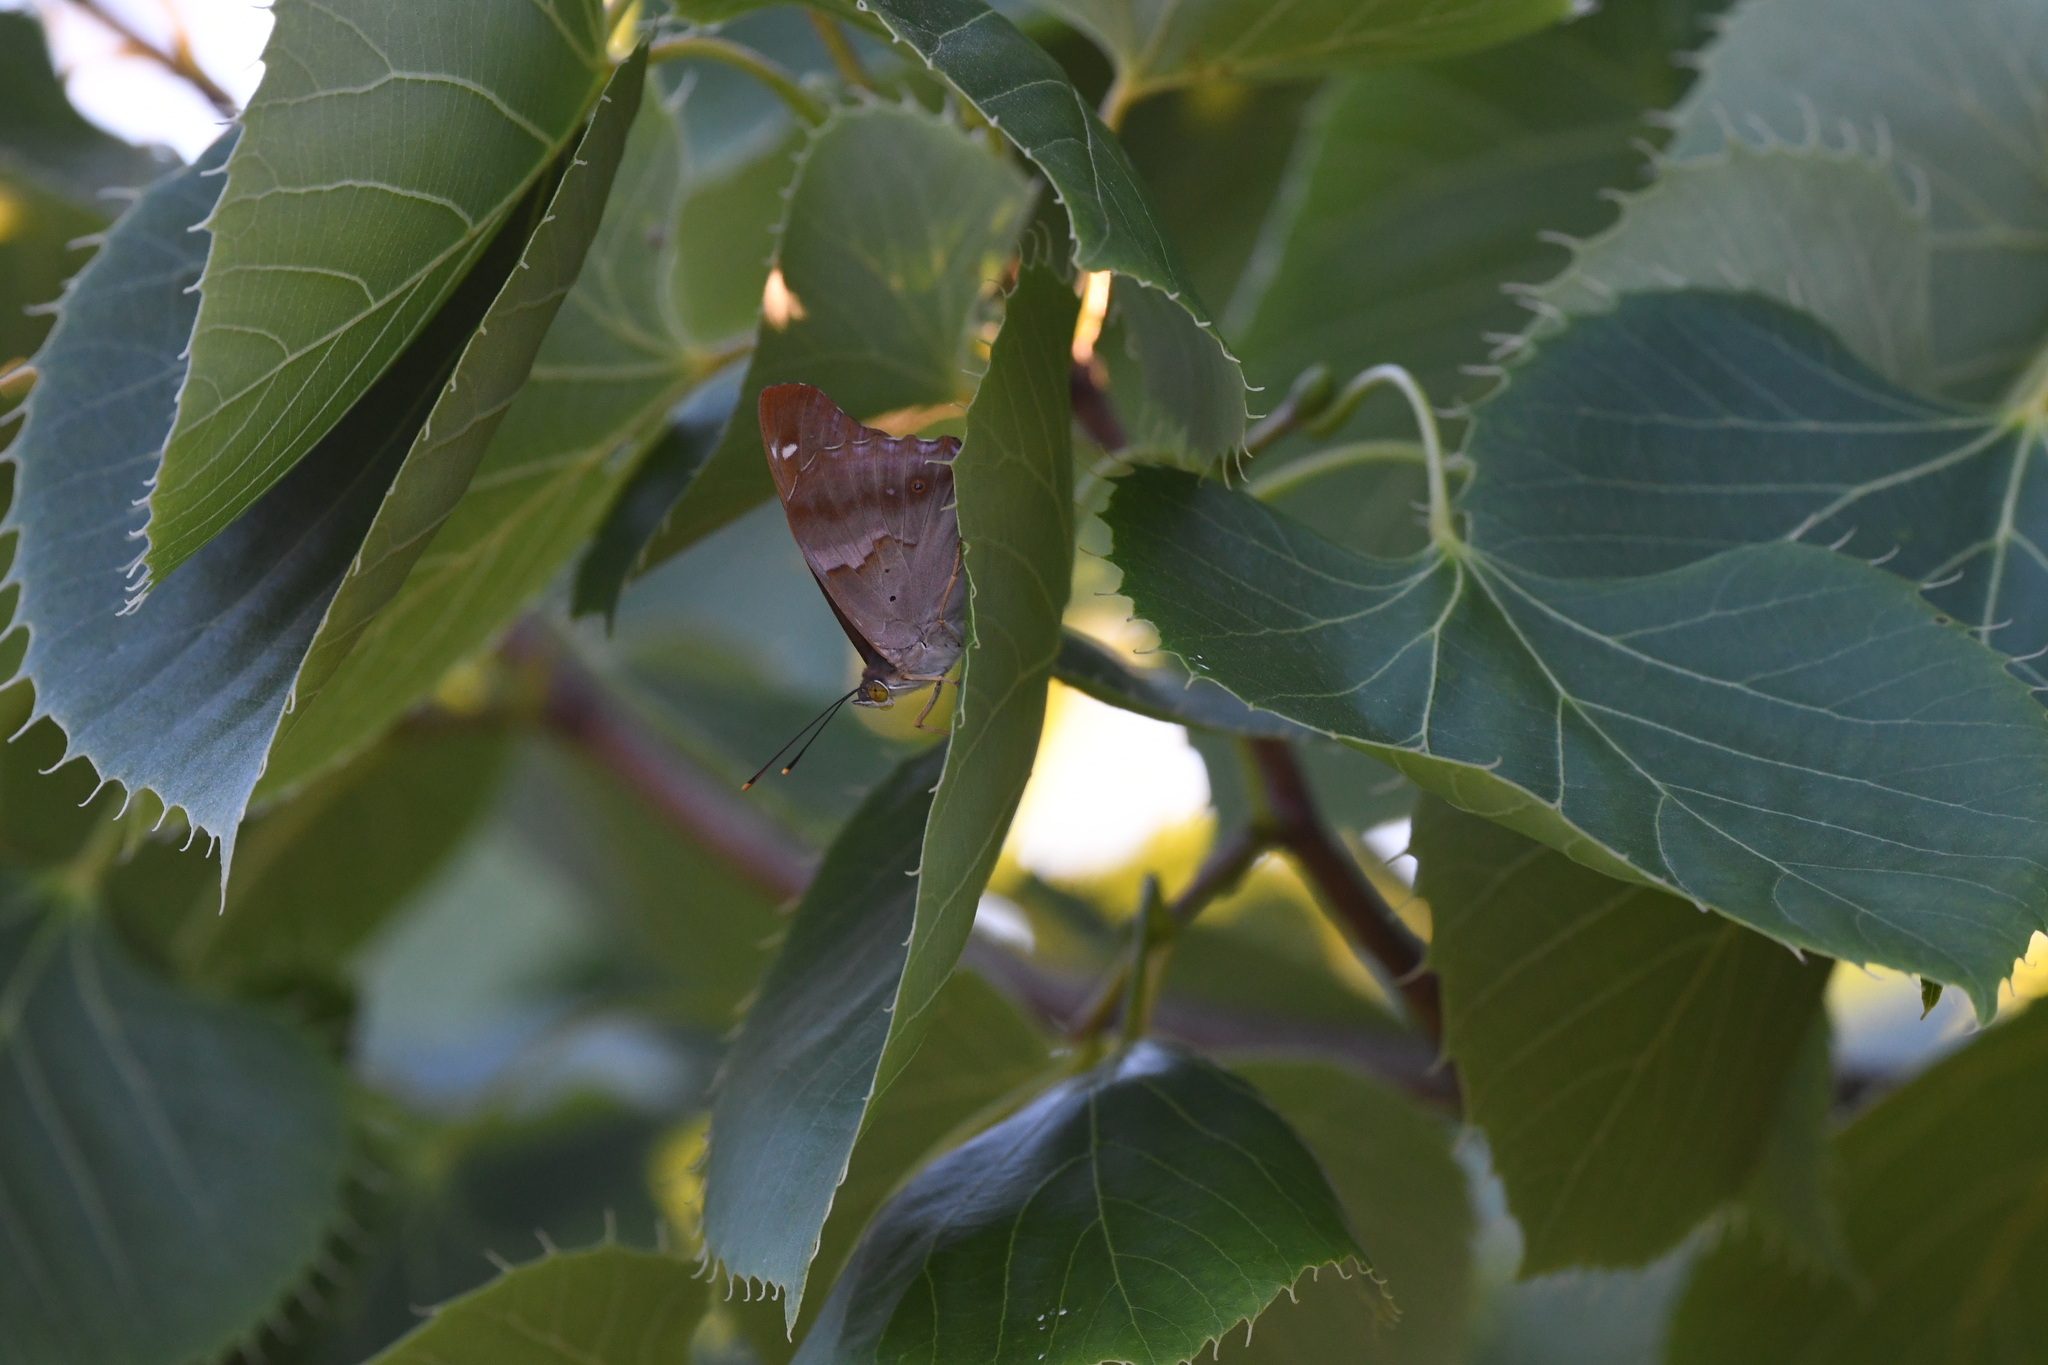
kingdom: Animalia
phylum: Arthropoda
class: Insecta
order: Lepidoptera
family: Nymphalidae
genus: Apatura
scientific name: Apatura ilia
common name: Lesser purple emperor
